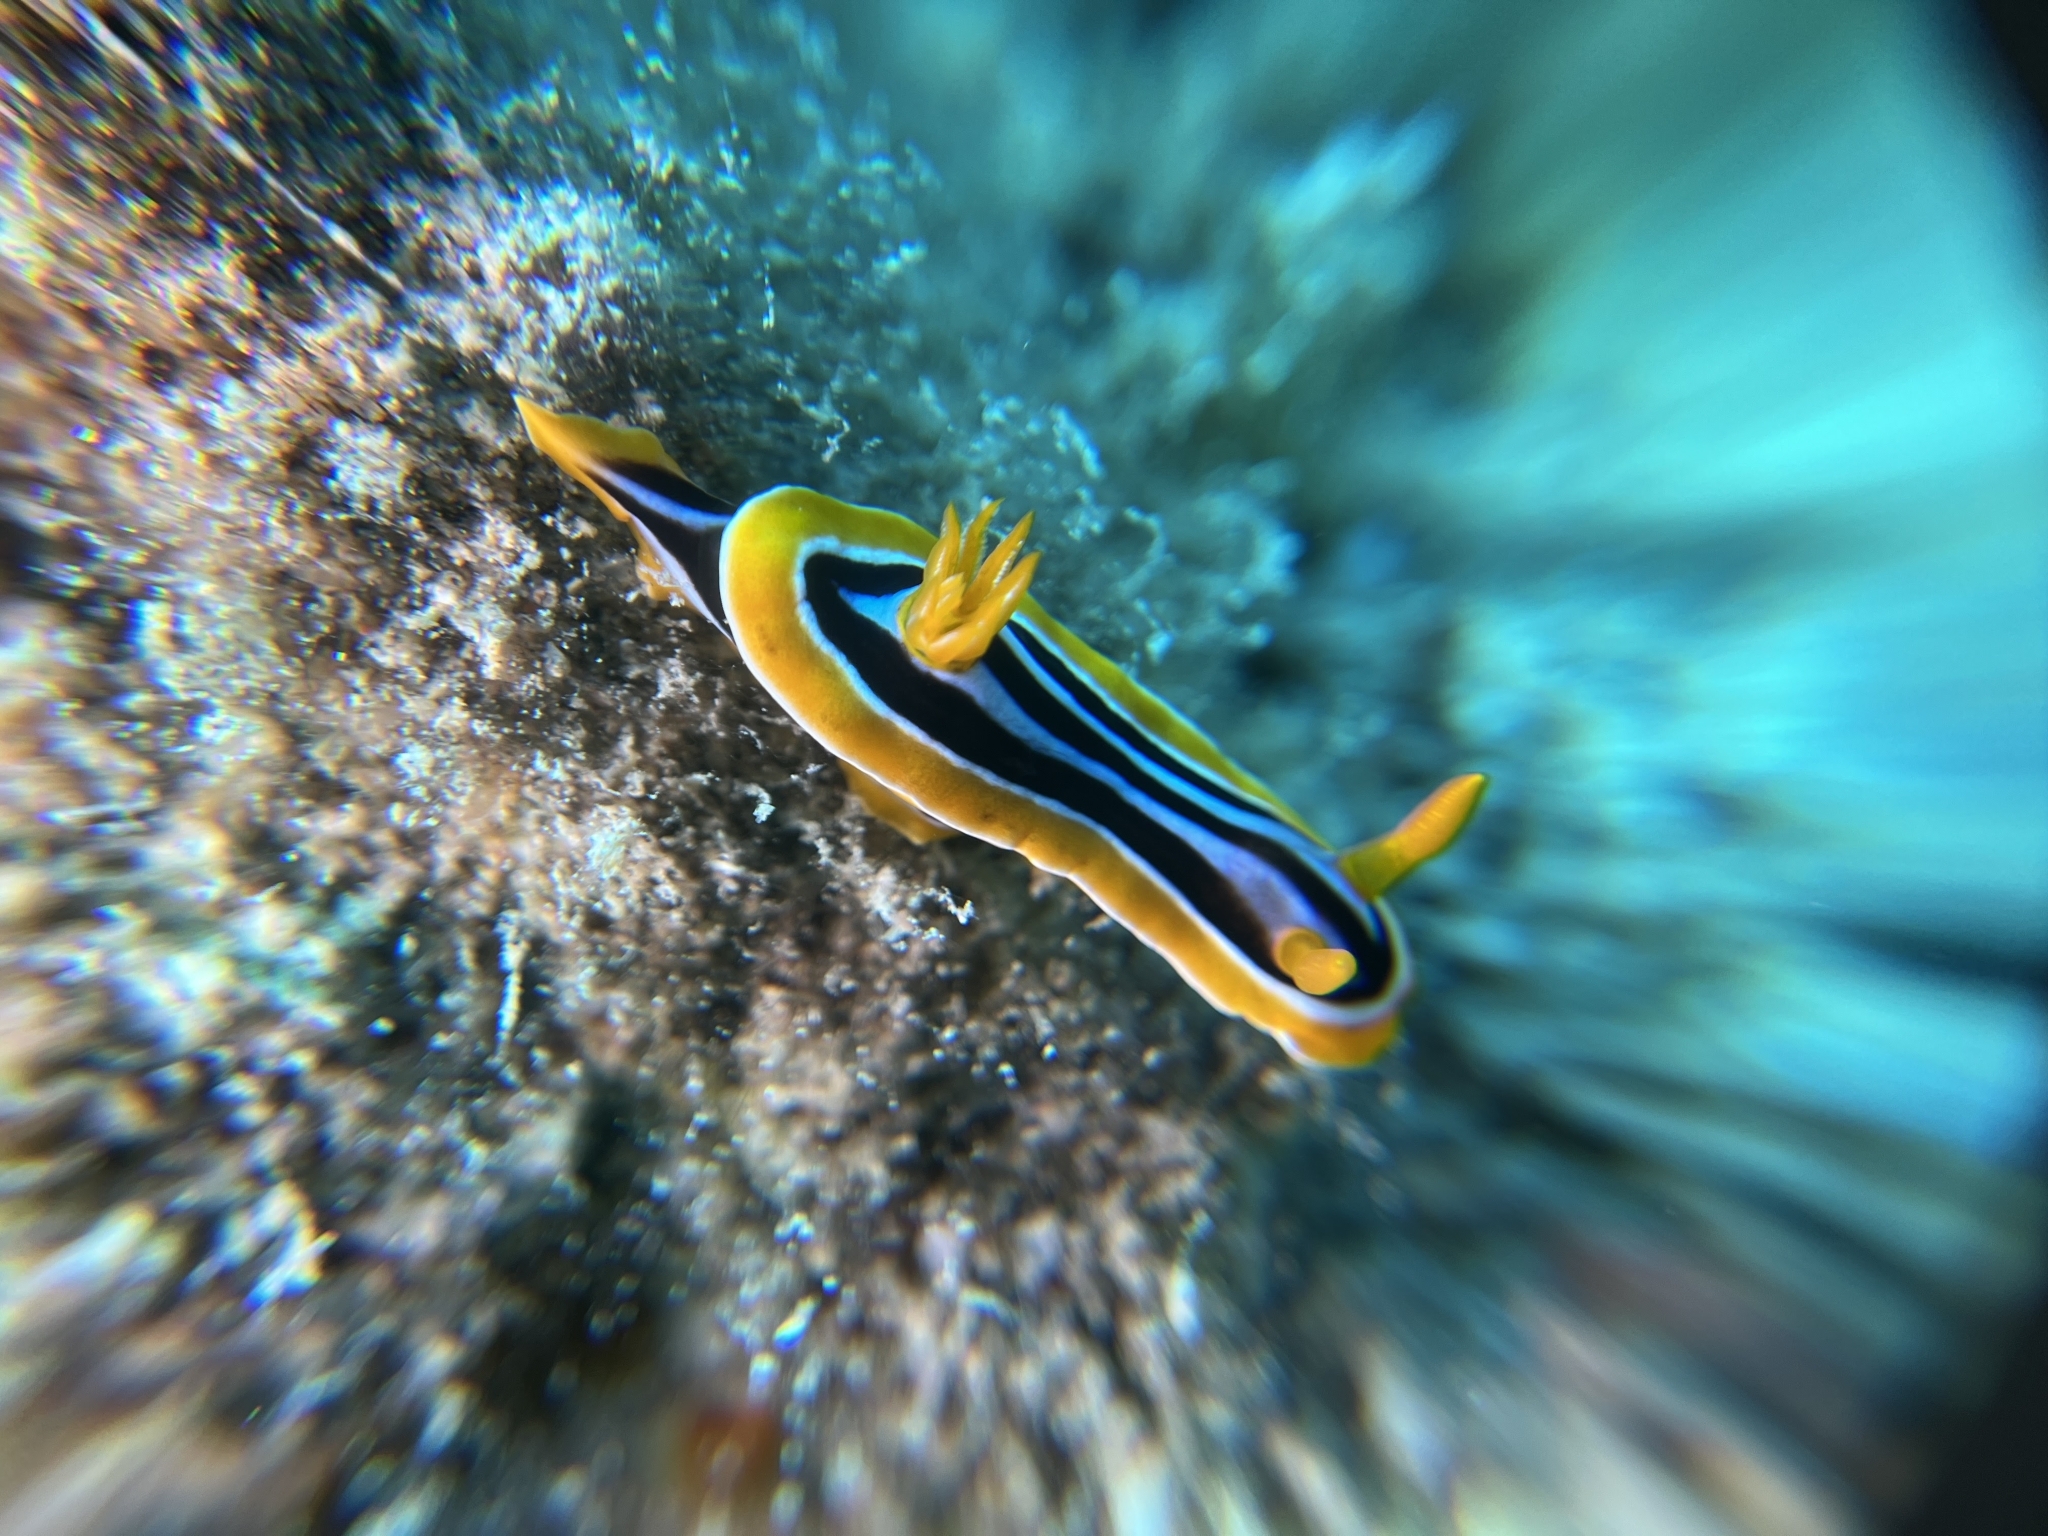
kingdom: Animalia
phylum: Mollusca
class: Gastropoda
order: Nudibranchia
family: Chromodorididae
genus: Chromodoris
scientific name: Chromodoris quadricolor
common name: Striped pyjama nudibranch
